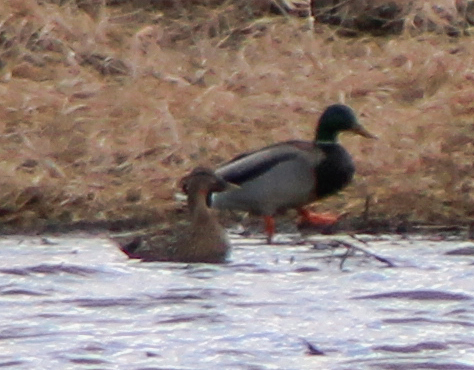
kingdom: Animalia
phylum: Chordata
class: Aves
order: Anseriformes
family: Anatidae
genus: Anas
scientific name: Anas platyrhynchos
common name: Mallard
